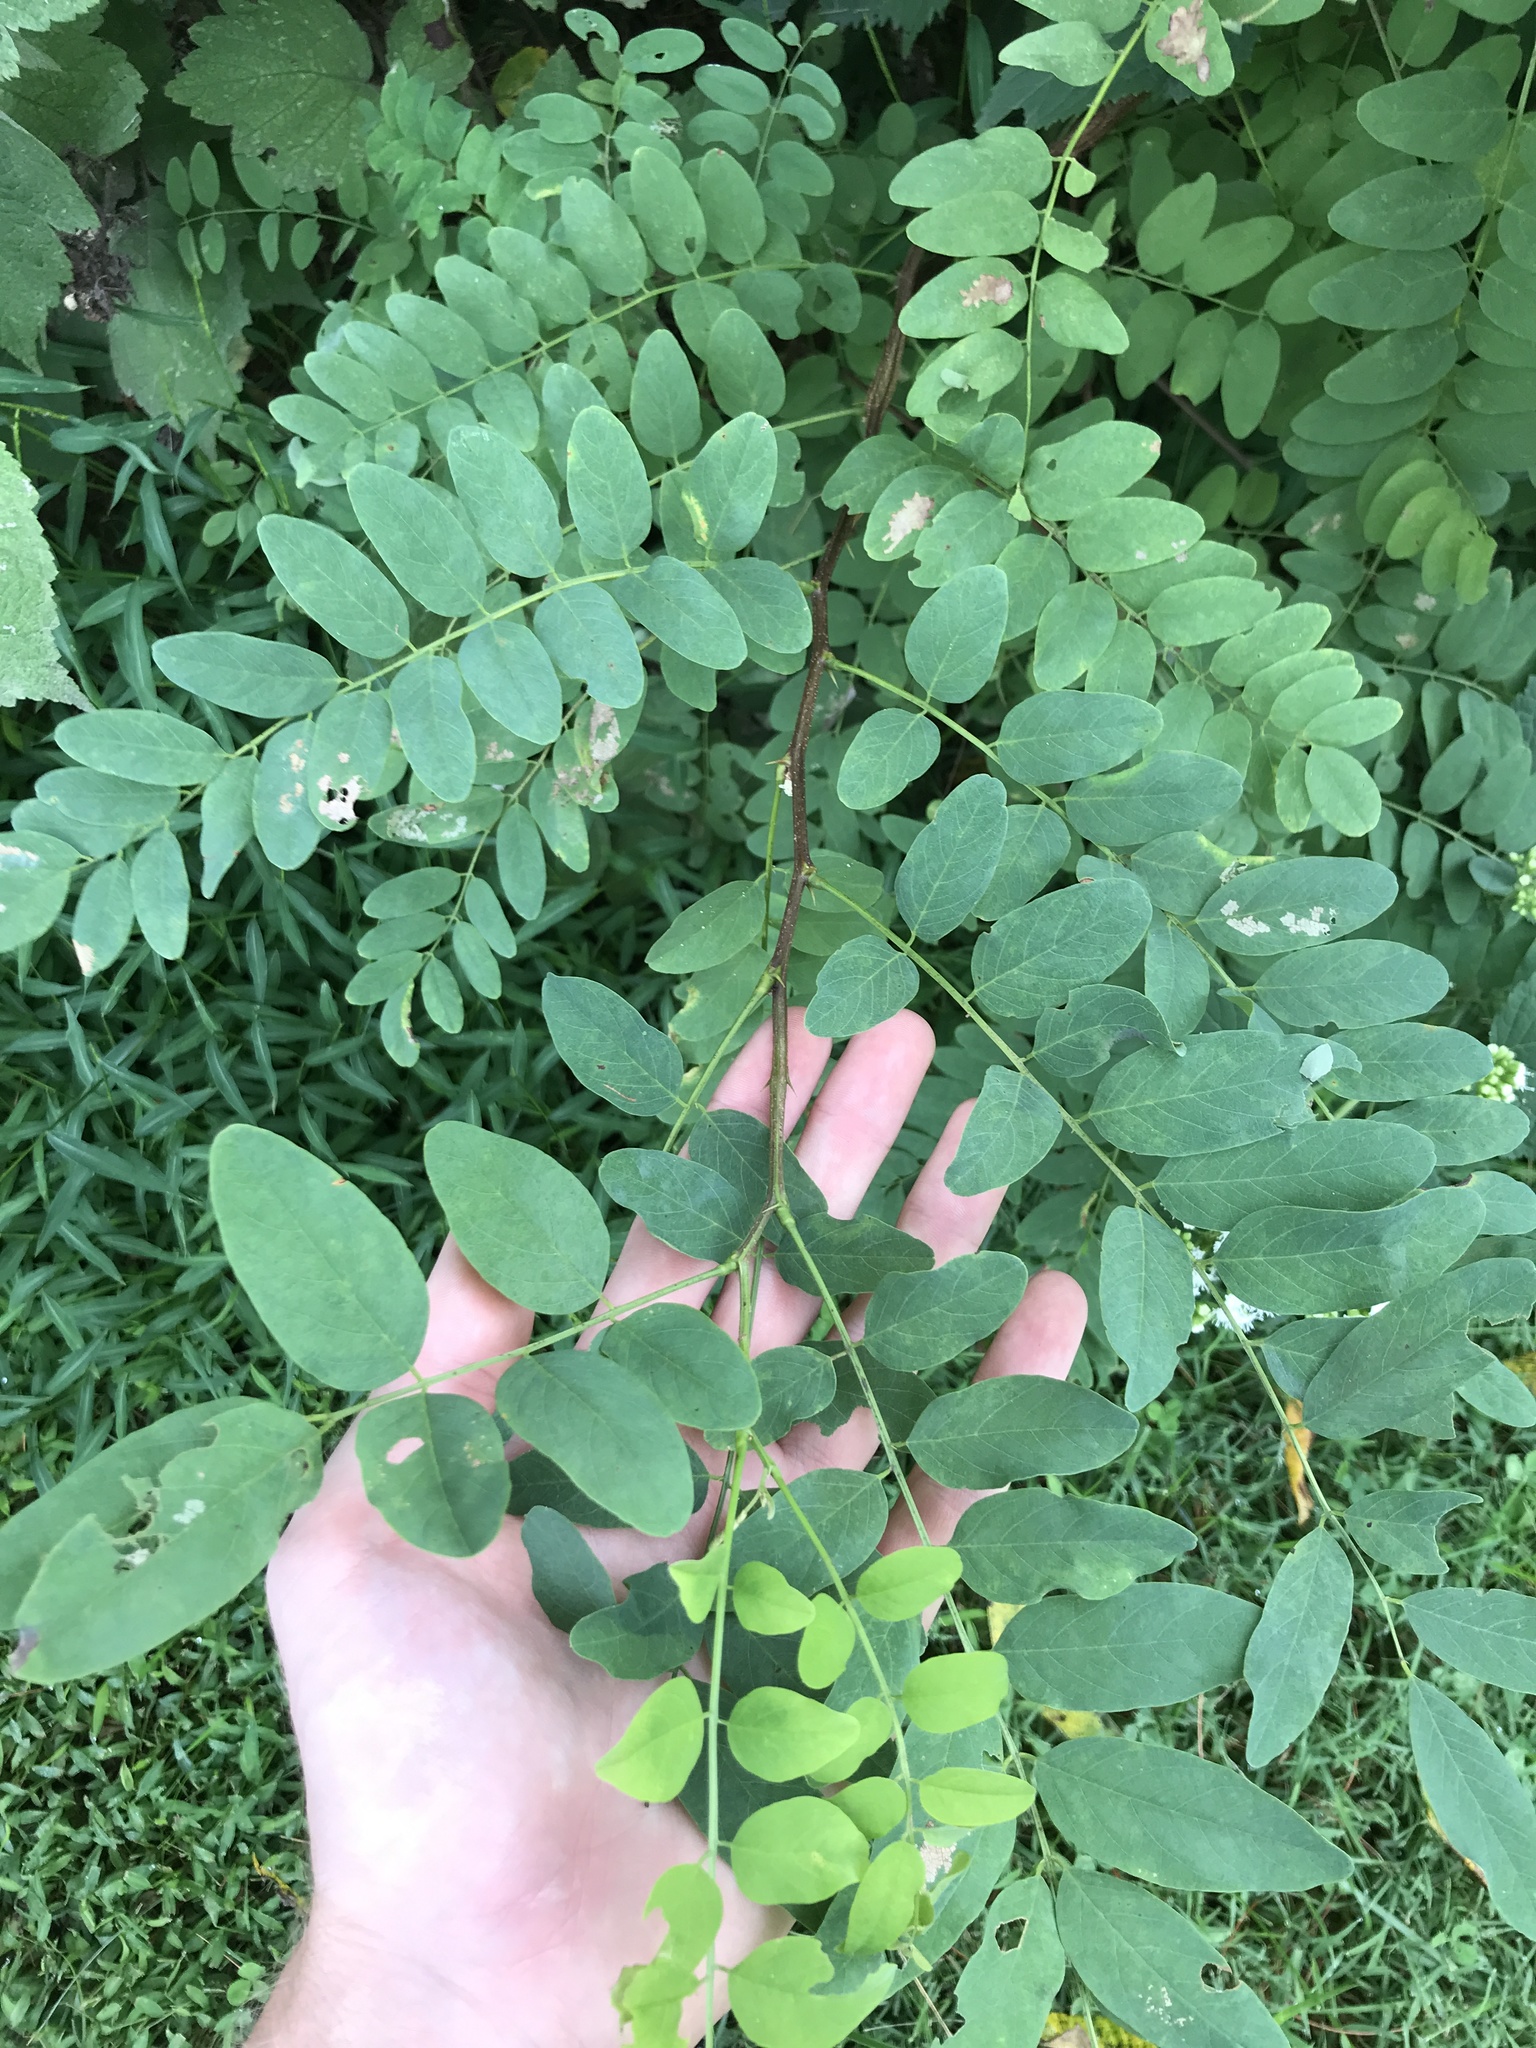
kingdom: Plantae
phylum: Tracheophyta
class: Magnoliopsida
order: Fabales
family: Fabaceae
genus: Robinia
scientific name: Robinia pseudoacacia
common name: Black locust
